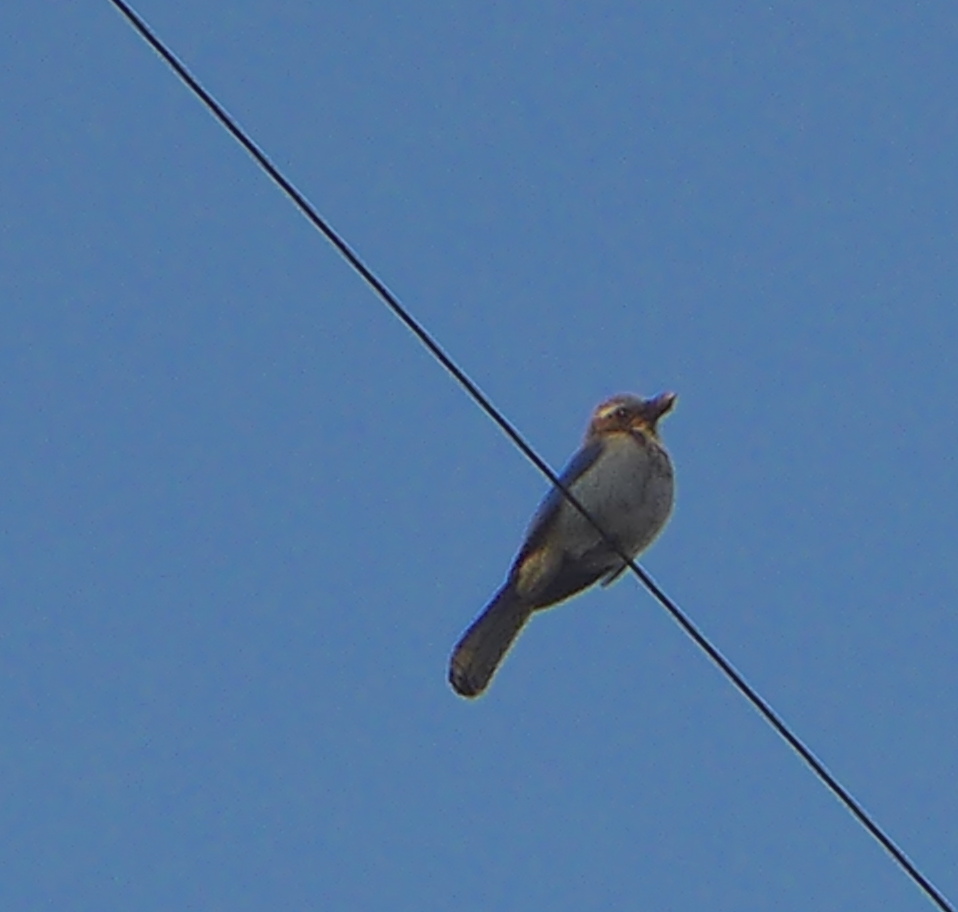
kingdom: Animalia
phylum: Chordata
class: Aves
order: Passeriformes
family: Corvidae
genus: Aphelocoma
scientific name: Aphelocoma californica
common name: California scrub-jay
